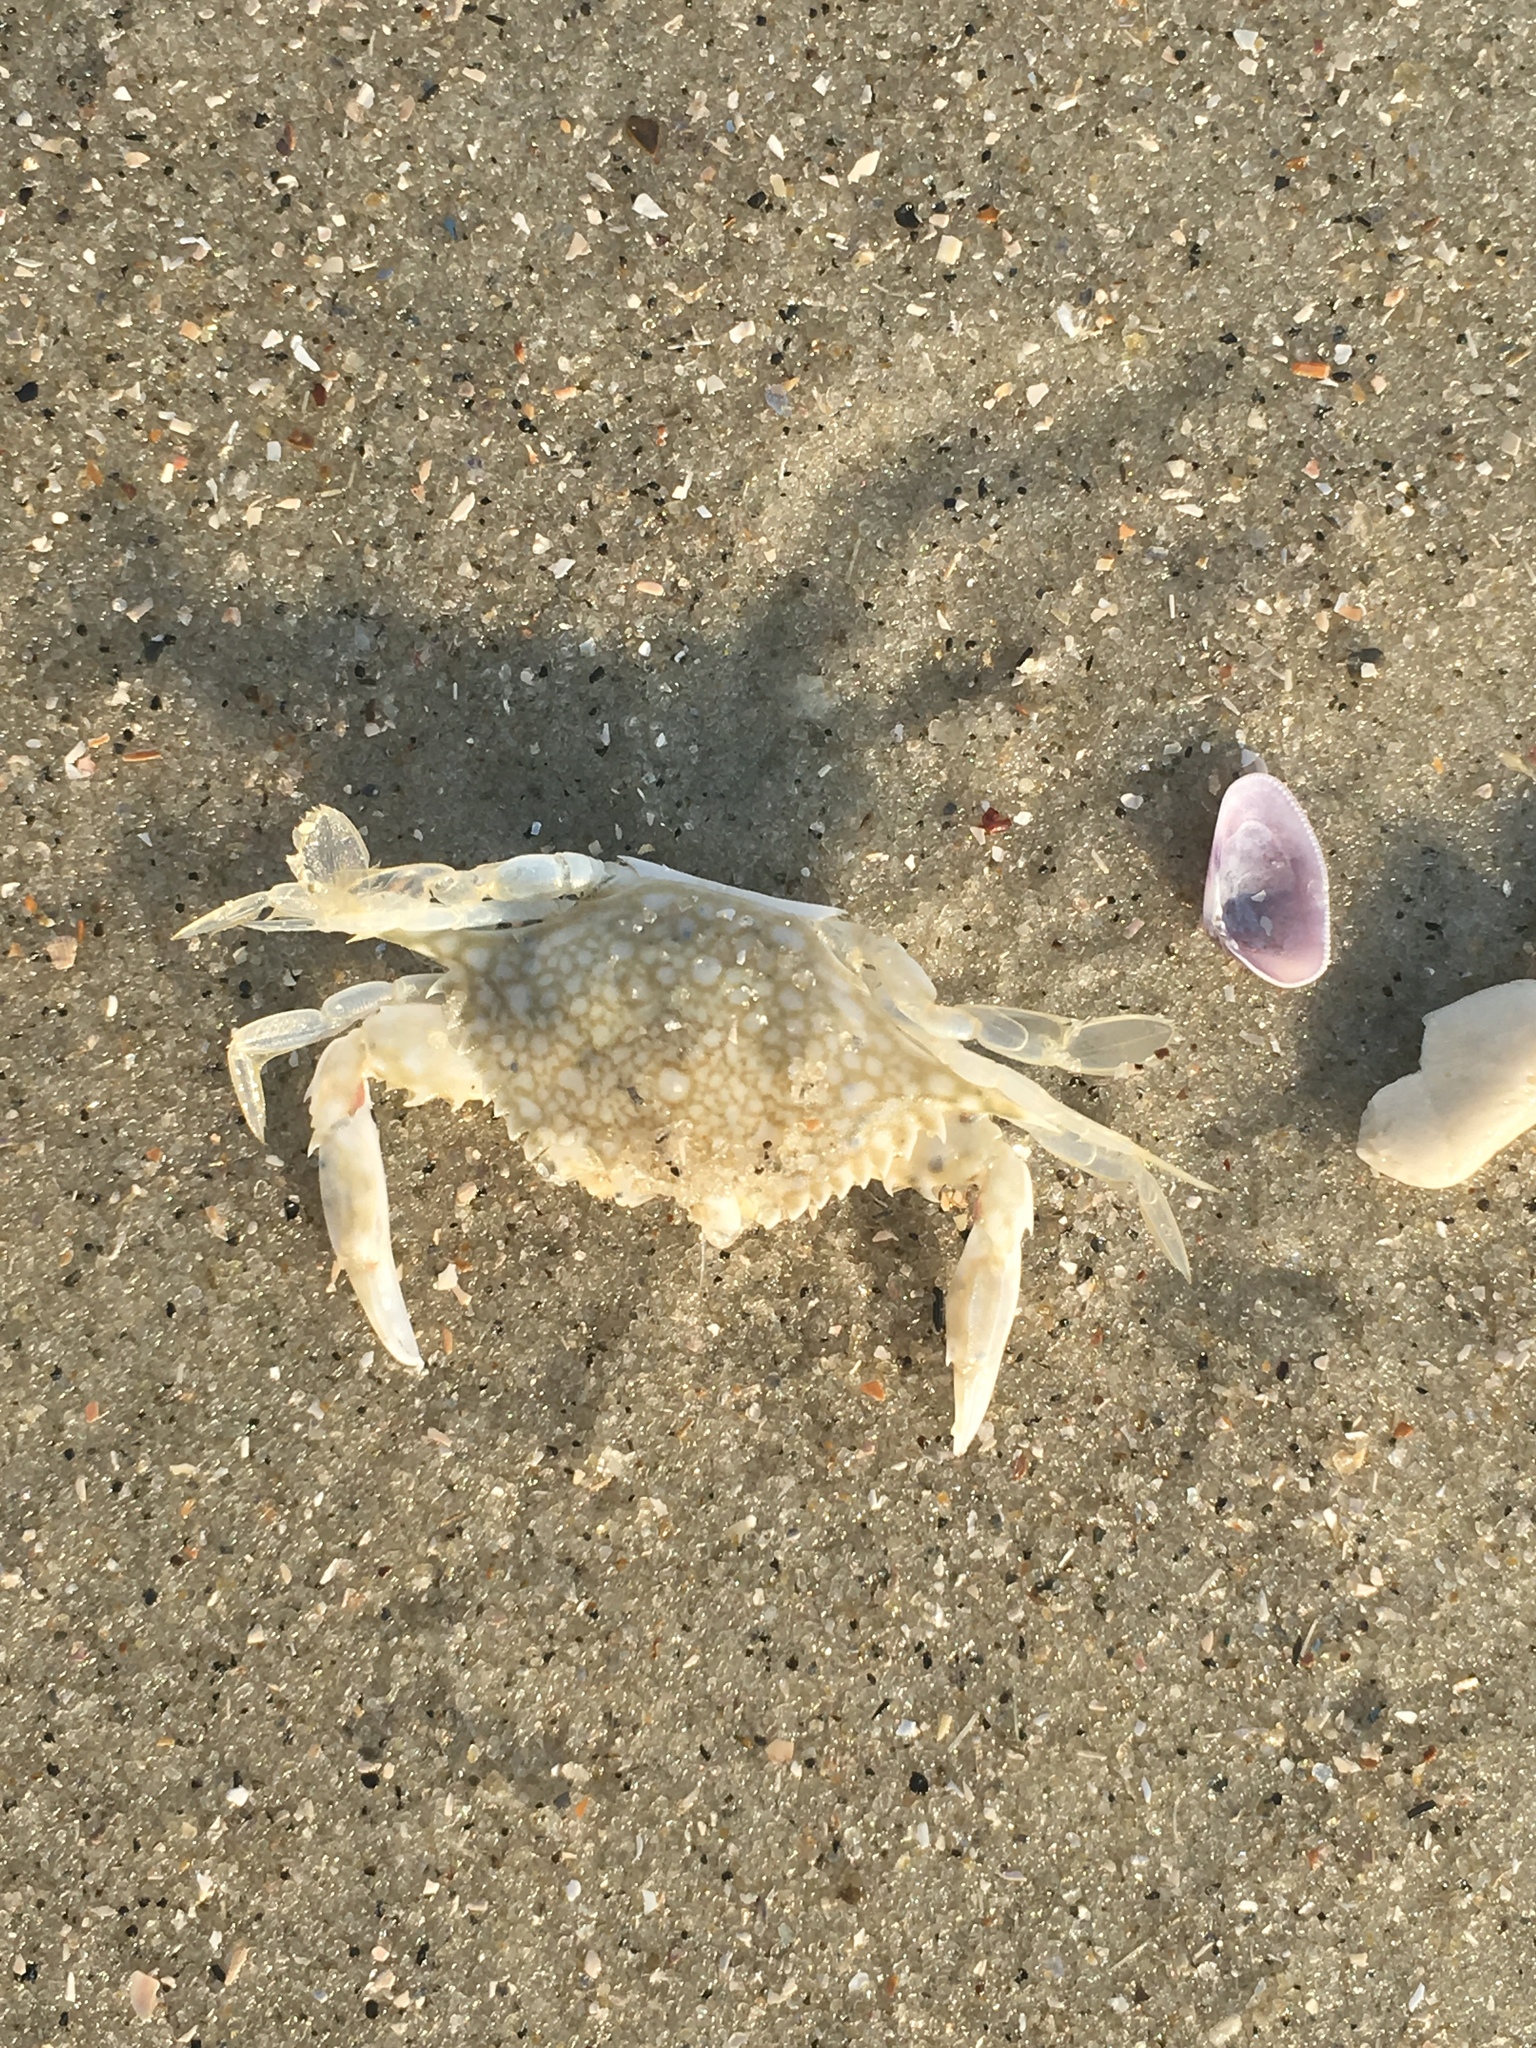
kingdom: Animalia
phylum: Arthropoda
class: Malacostraca
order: Decapoda
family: Portunidae
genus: Arenaeus
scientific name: Arenaeus cribrarius
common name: Speckled crab
